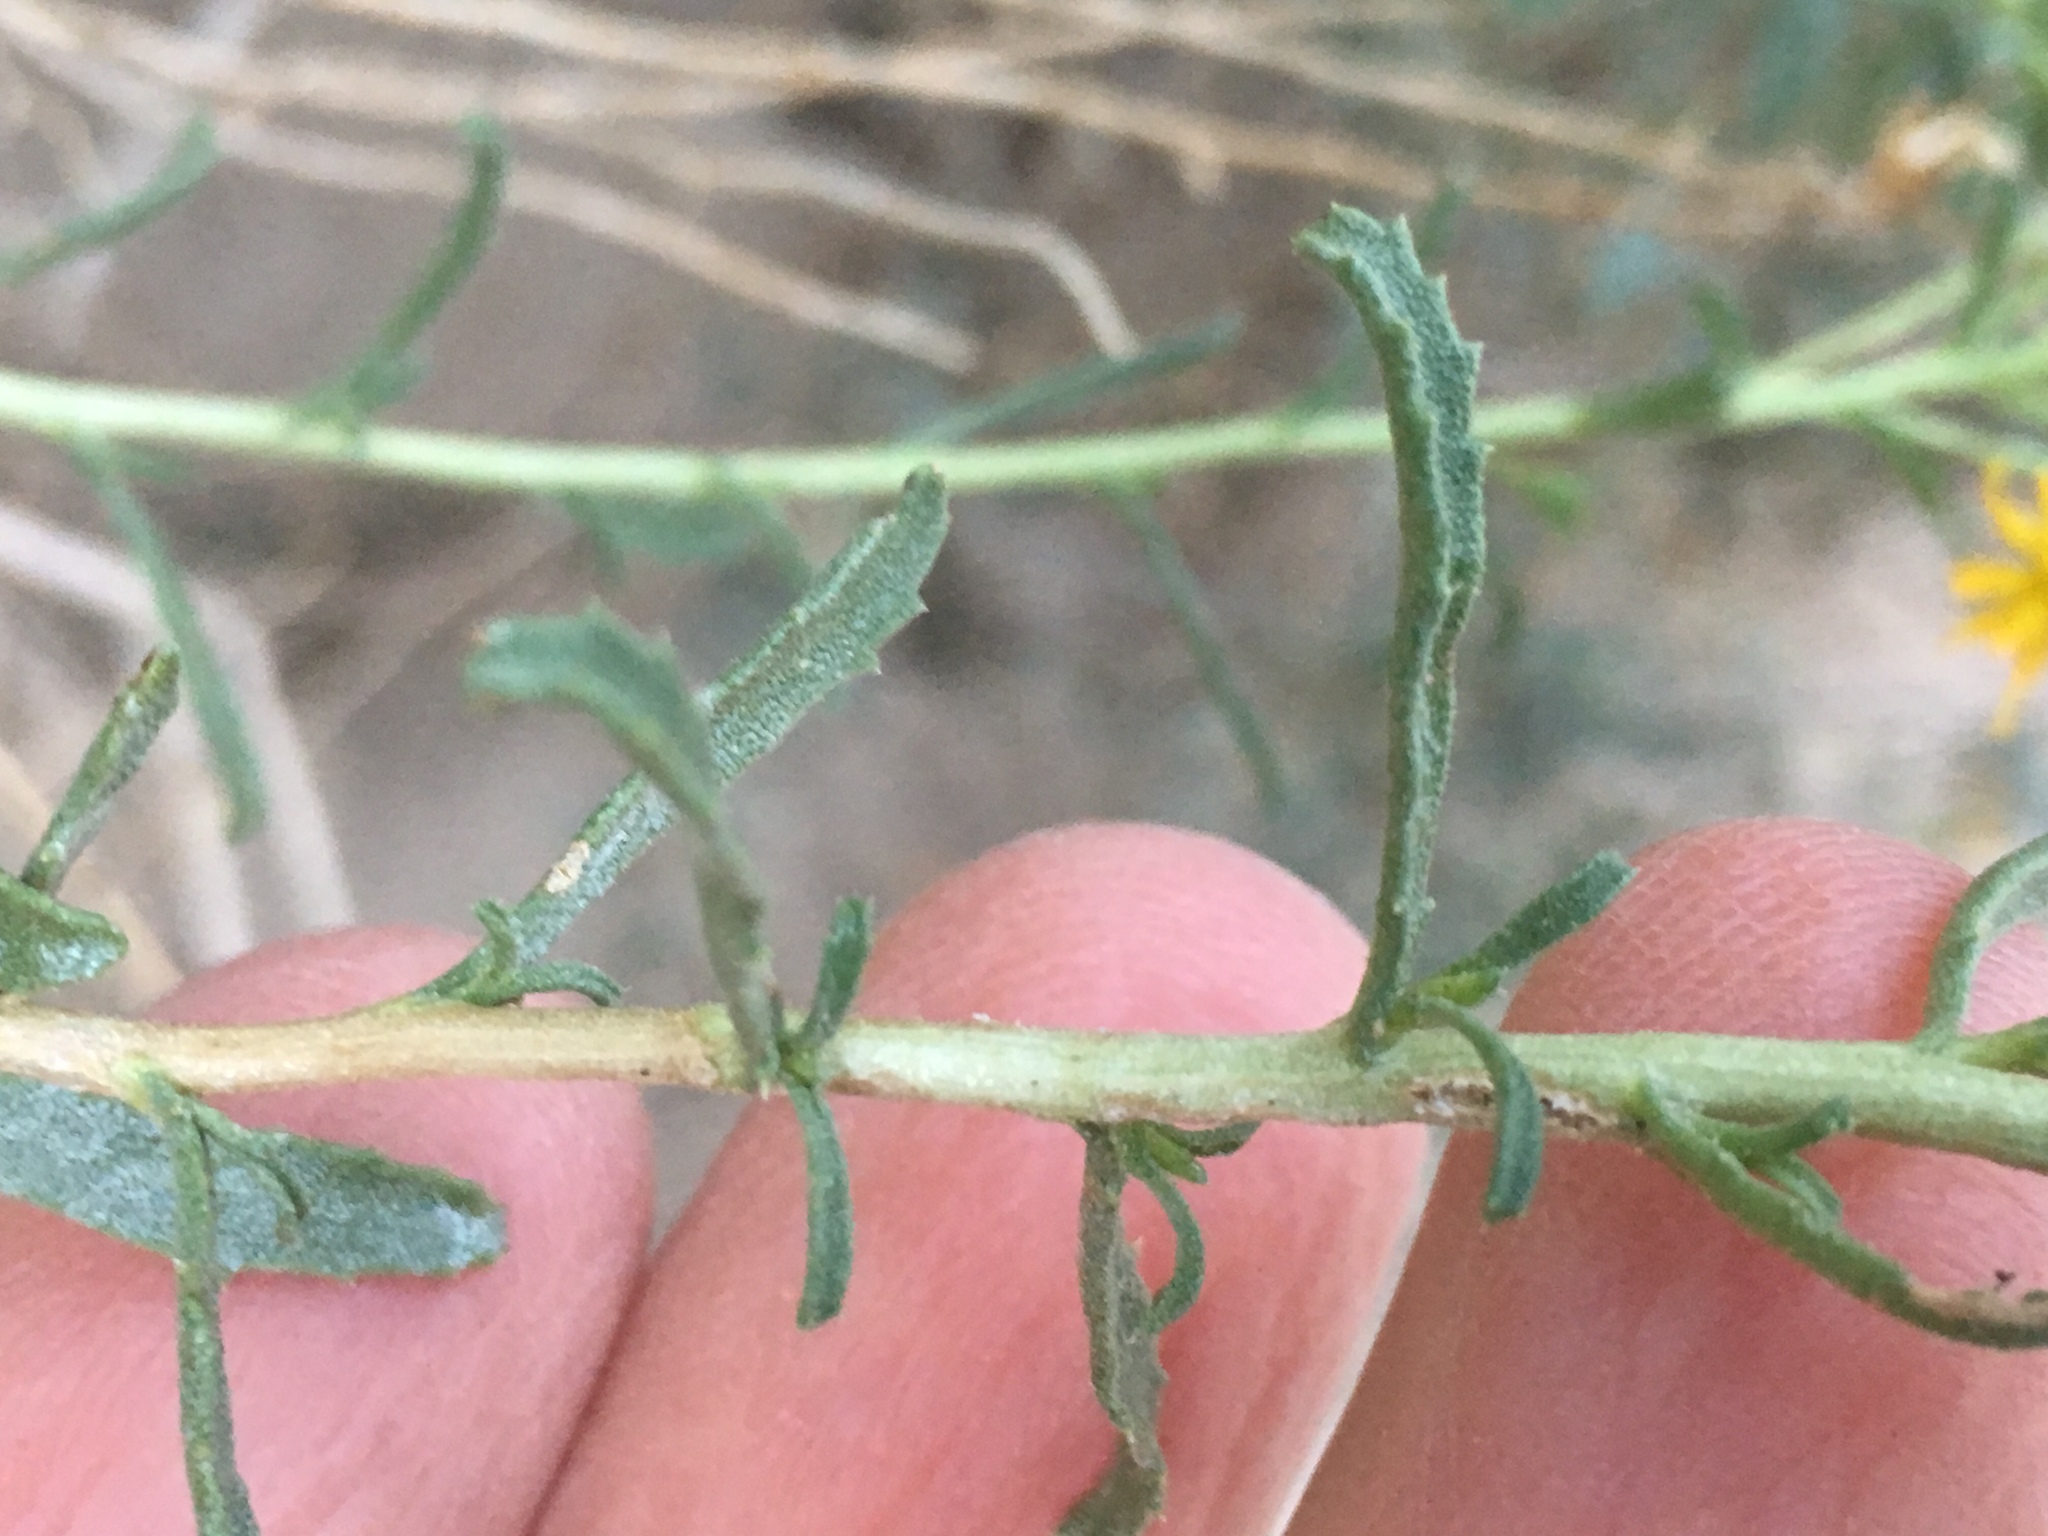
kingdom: Plantae
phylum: Tracheophyta
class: Magnoliopsida
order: Asterales
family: Asteraceae
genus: Isocoma
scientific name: Isocoma acradenia
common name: Alkali jimmyweed
